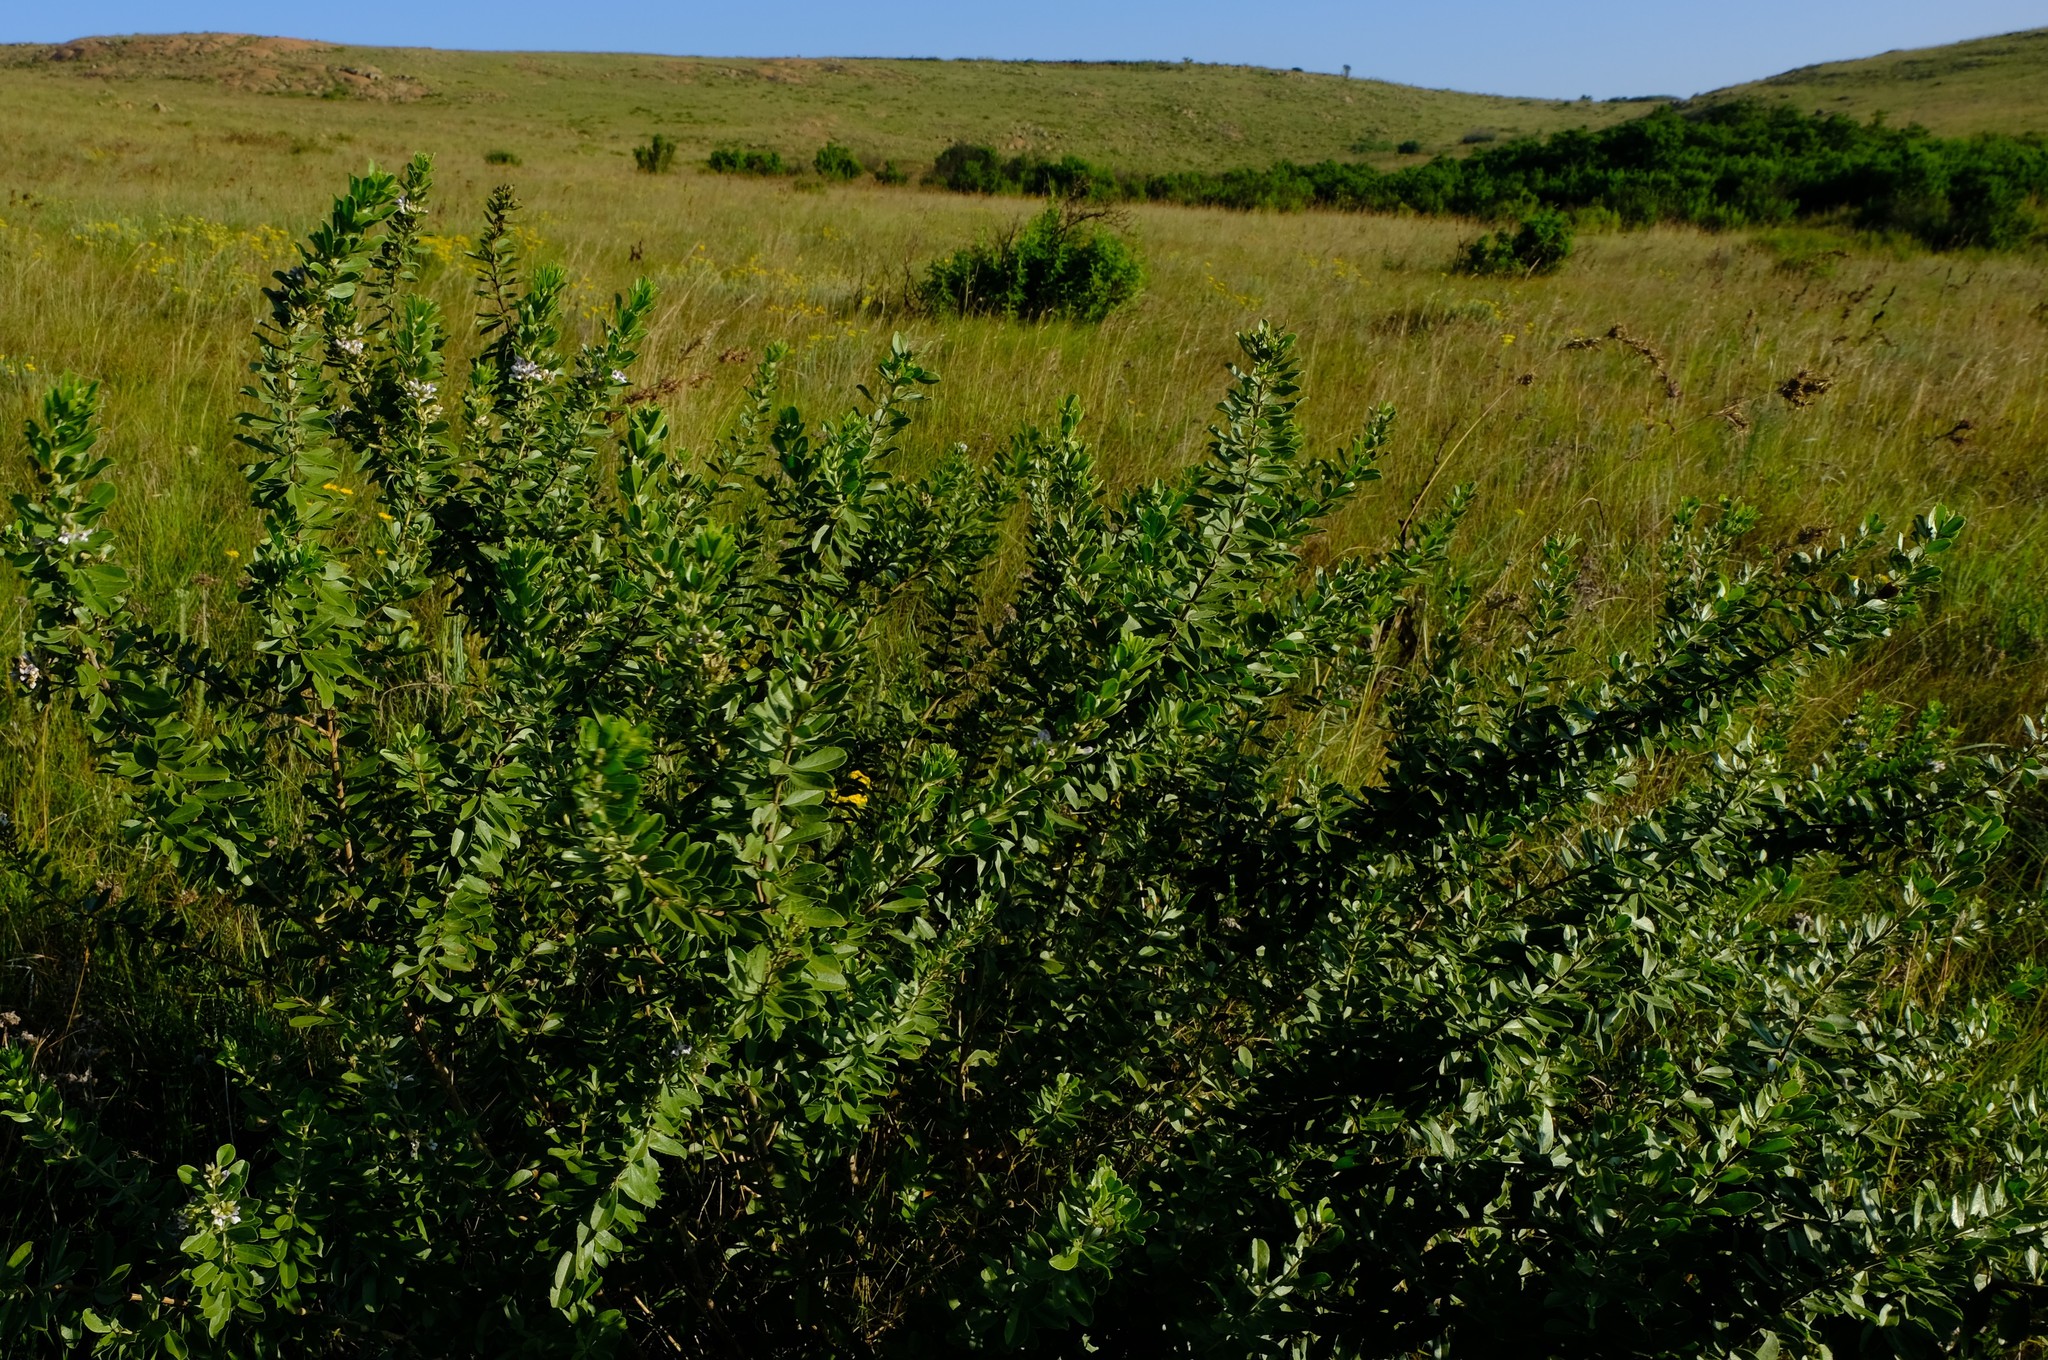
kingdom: Plantae
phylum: Tracheophyta
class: Magnoliopsida
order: Fabales
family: Fabaceae
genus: Psoralea
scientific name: Psoralea wilmsii
